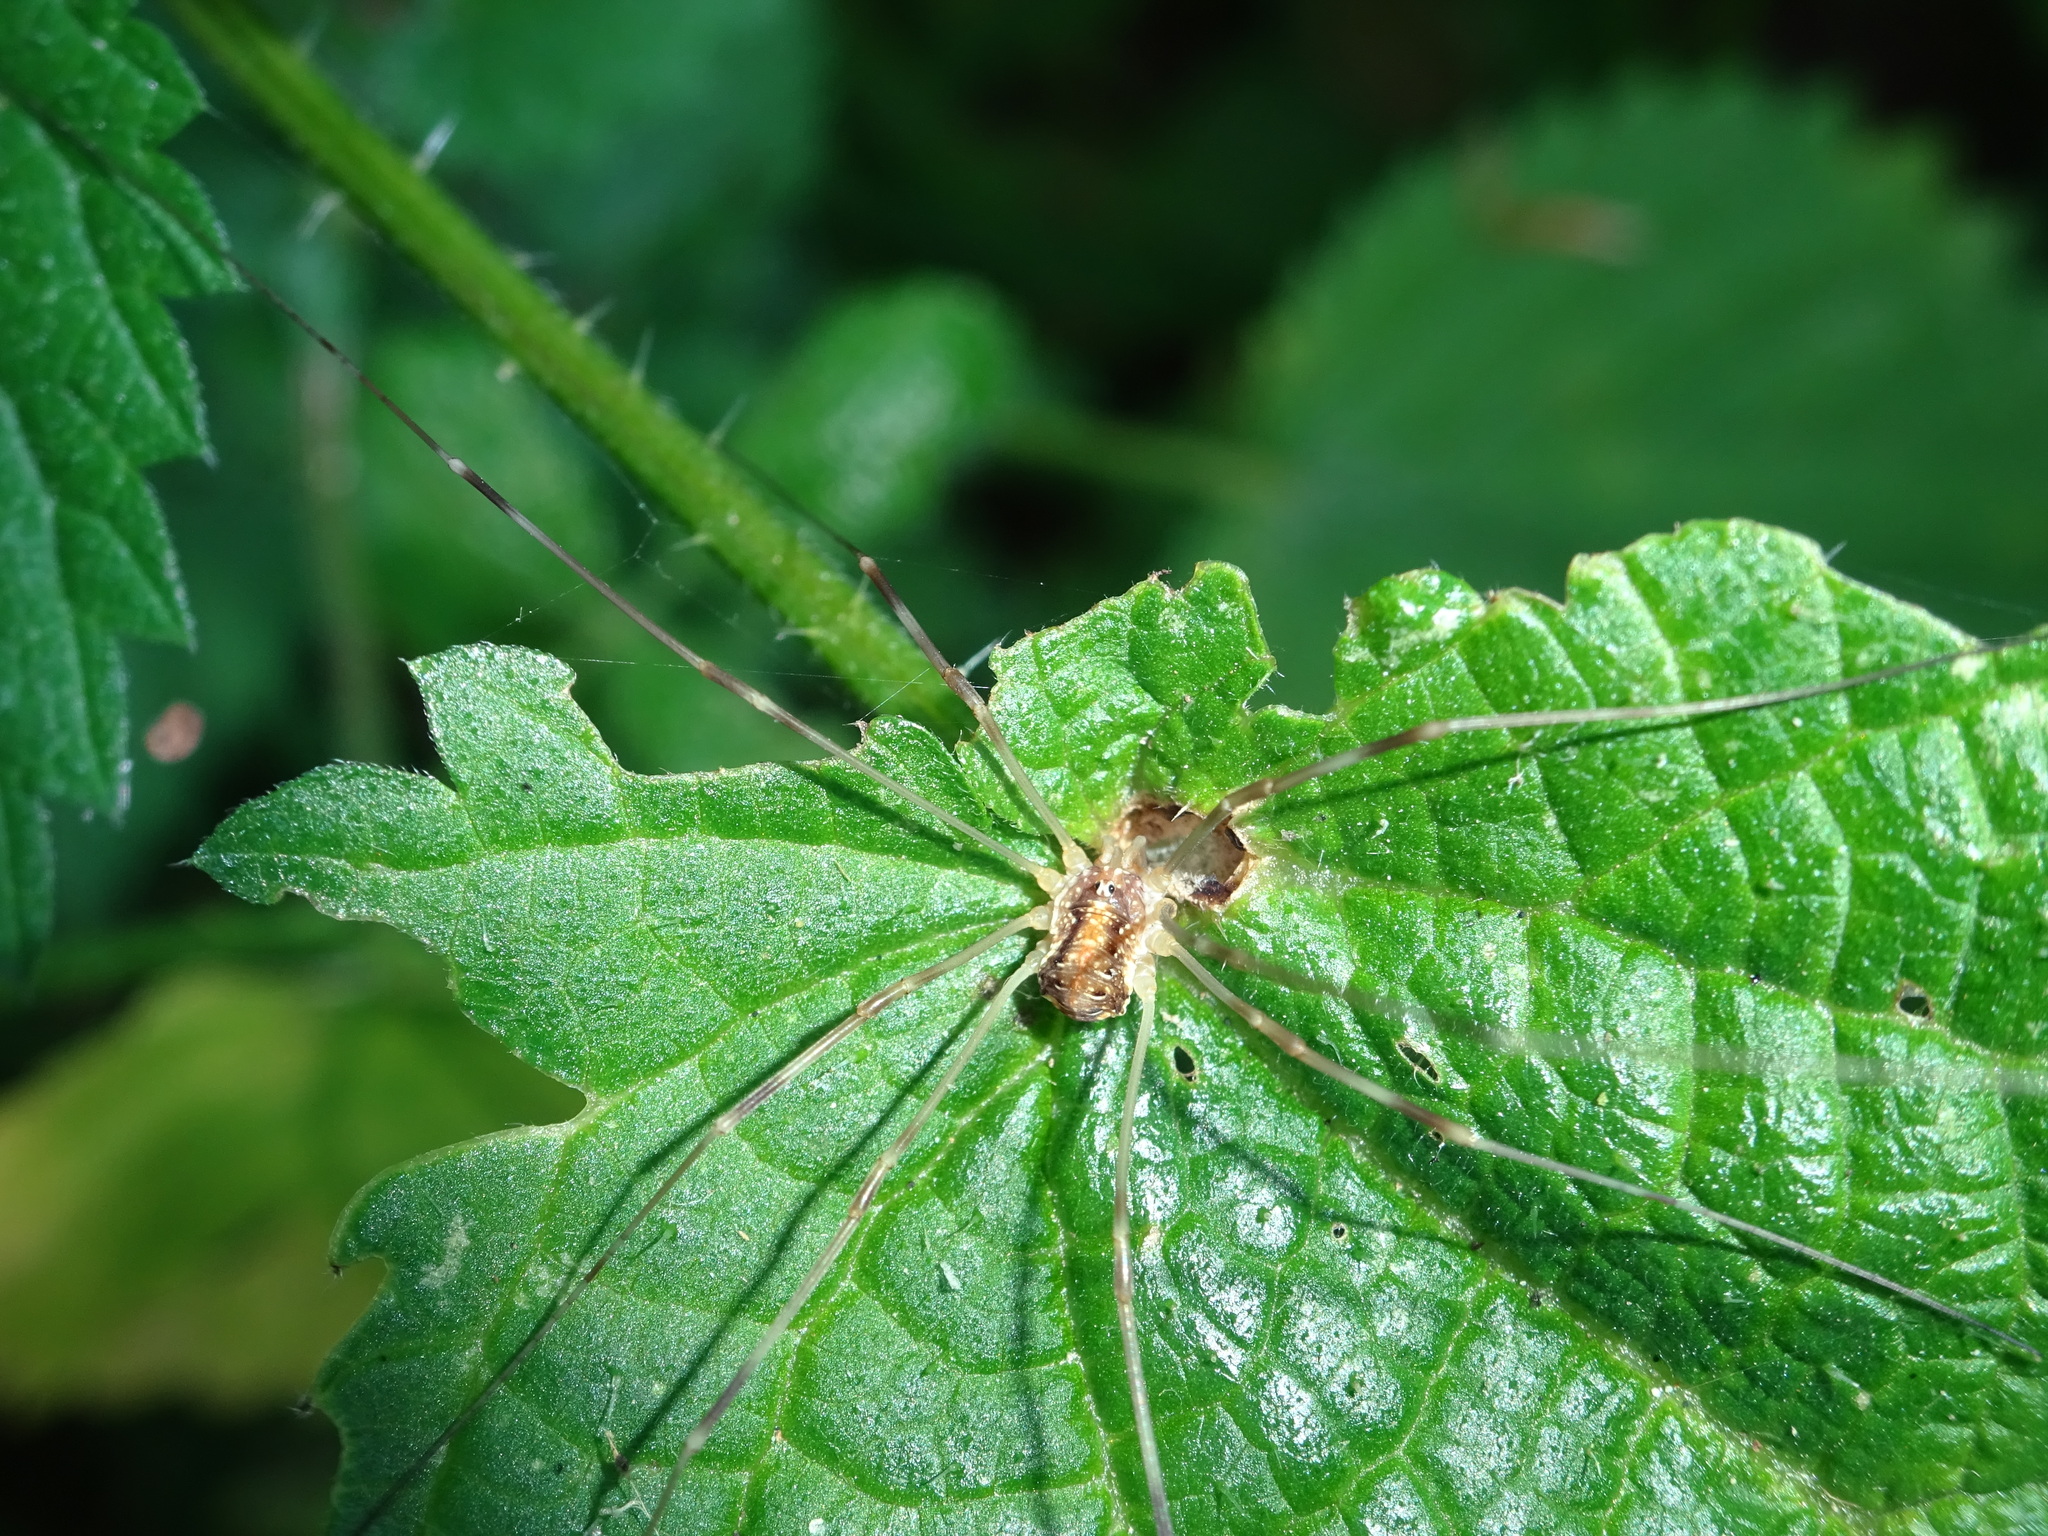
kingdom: Animalia
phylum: Arthropoda
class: Arachnida
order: Opiliones
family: Phalangiidae
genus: Opilio
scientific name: Opilio canestrinii
